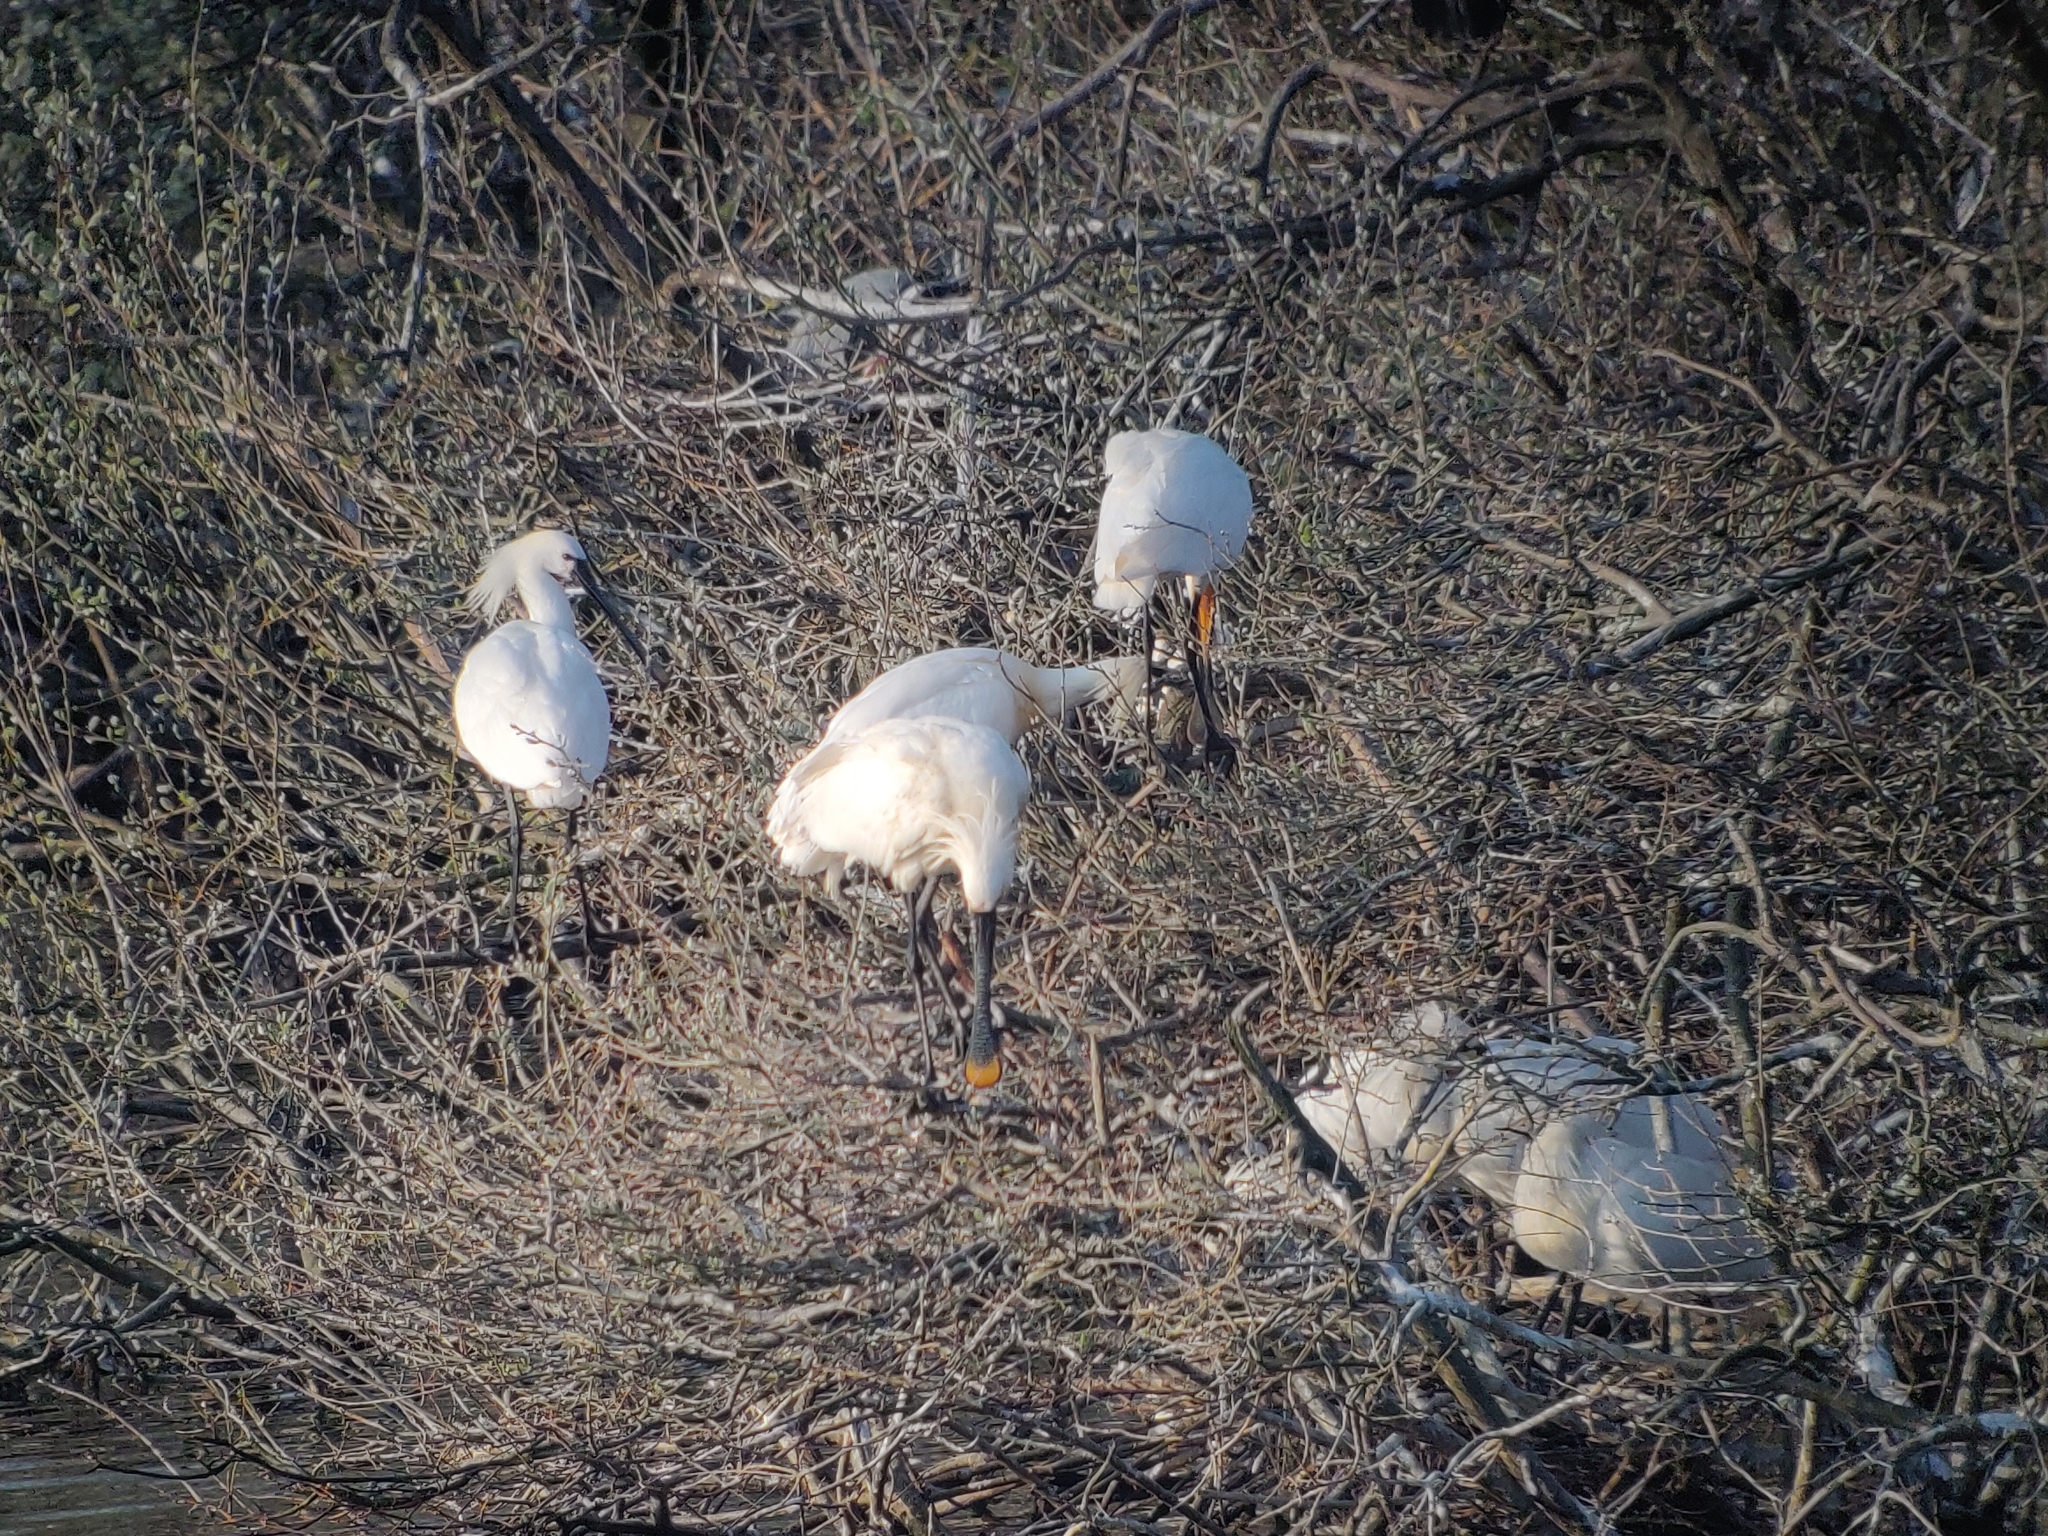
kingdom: Animalia
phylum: Chordata
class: Aves
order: Pelecaniformes
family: Threskiornithidae
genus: Platalea
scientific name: Platalea leucorodia
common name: Eurasian spoonbill
